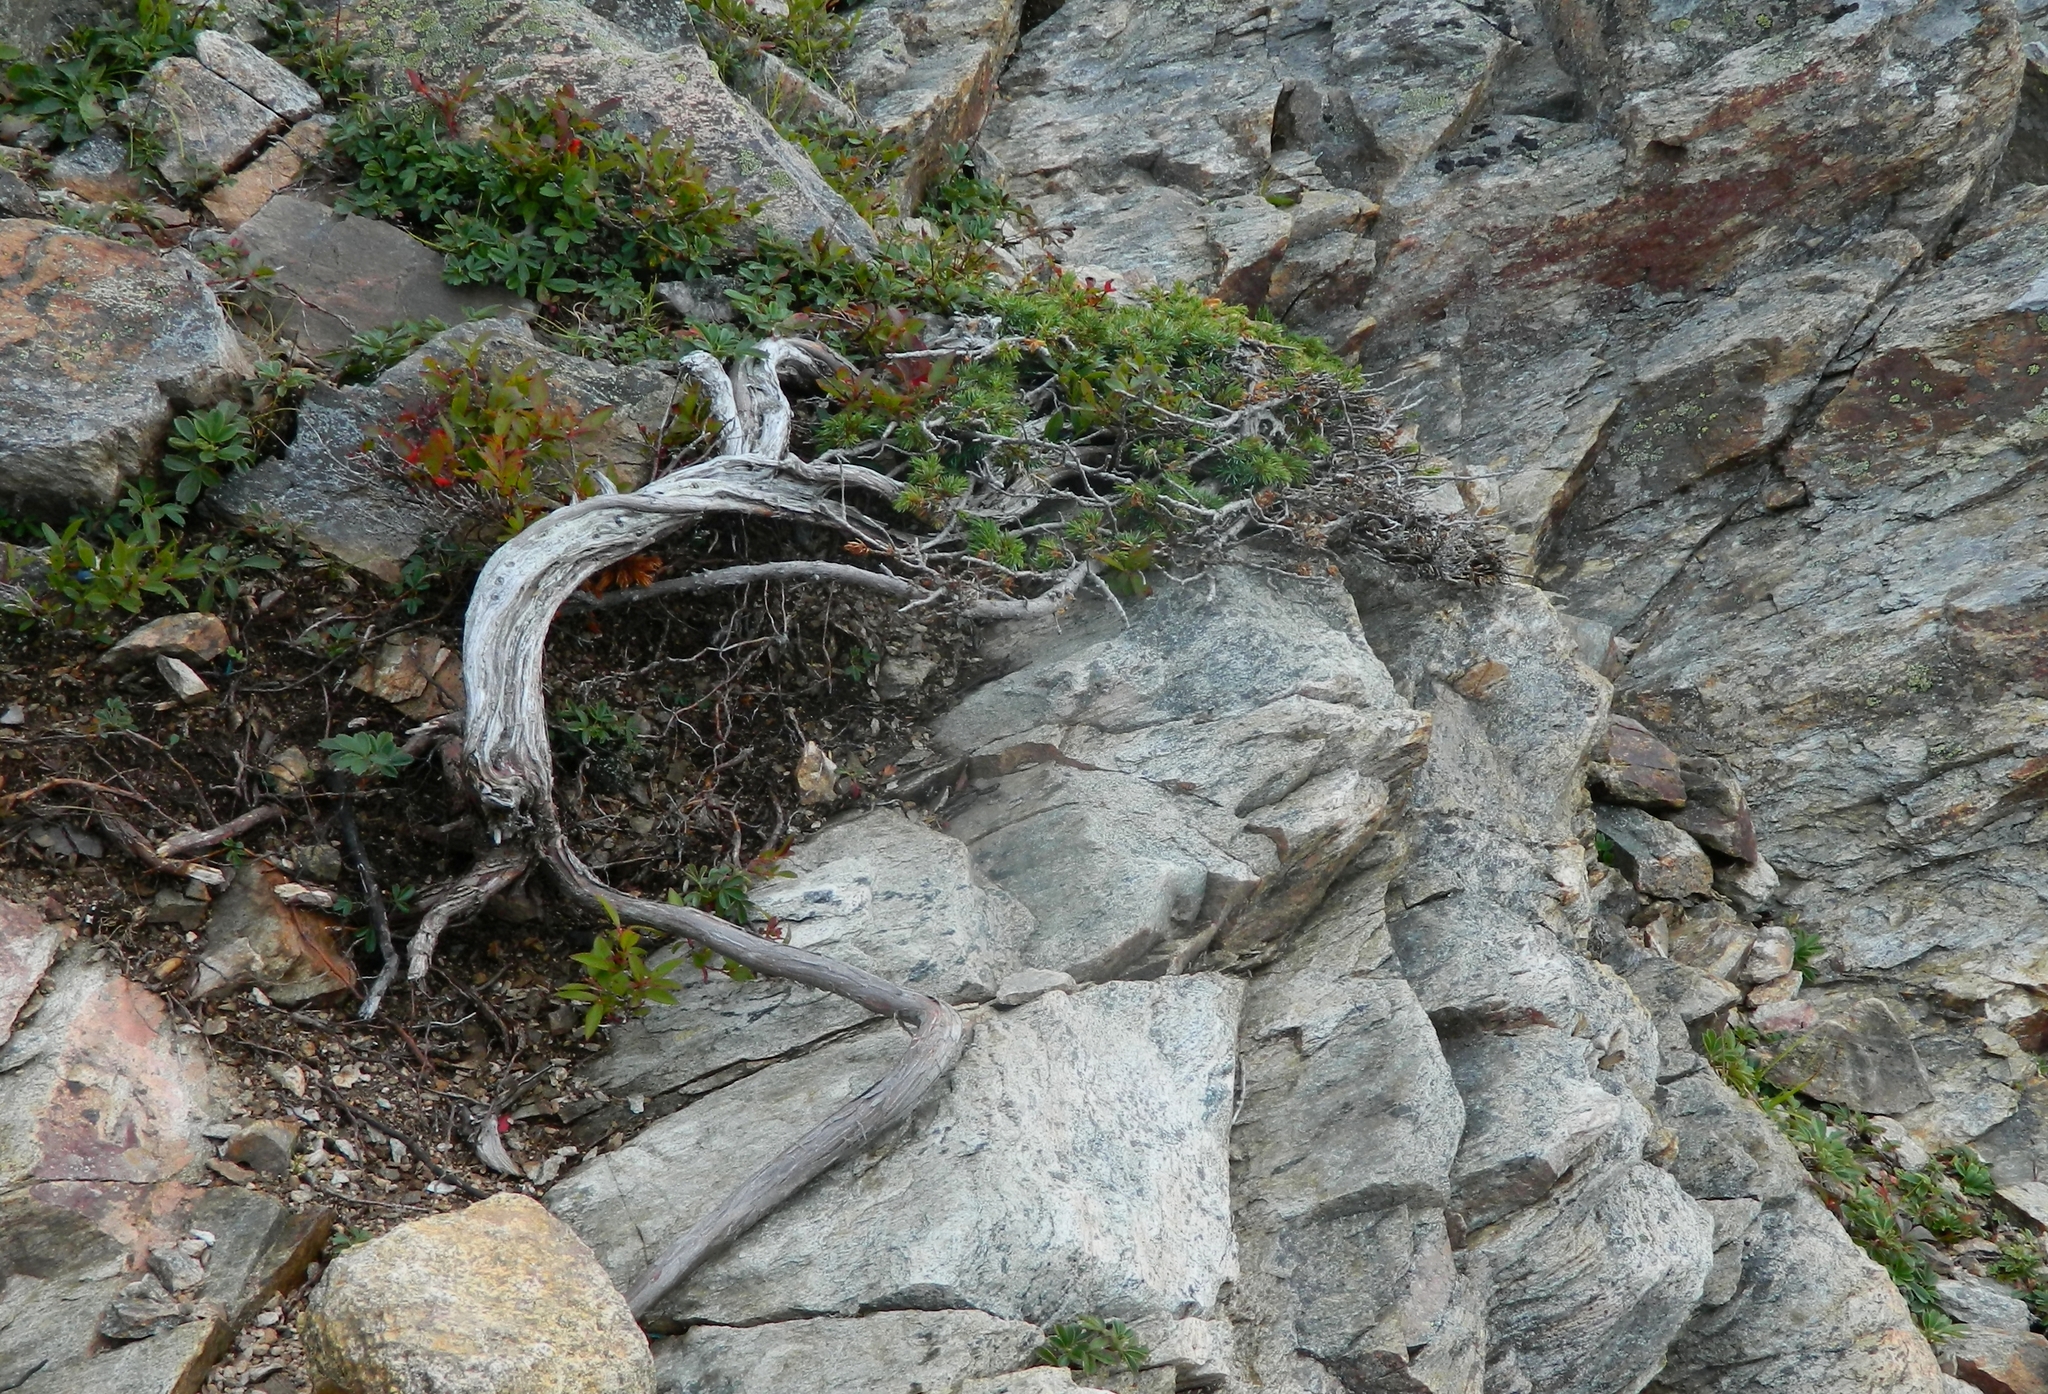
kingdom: Plantae
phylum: Tracheophyta
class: Pinopsida
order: Pinales
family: Cupressaceae
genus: Juniperus
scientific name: Juniperus communis
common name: Common juniper
